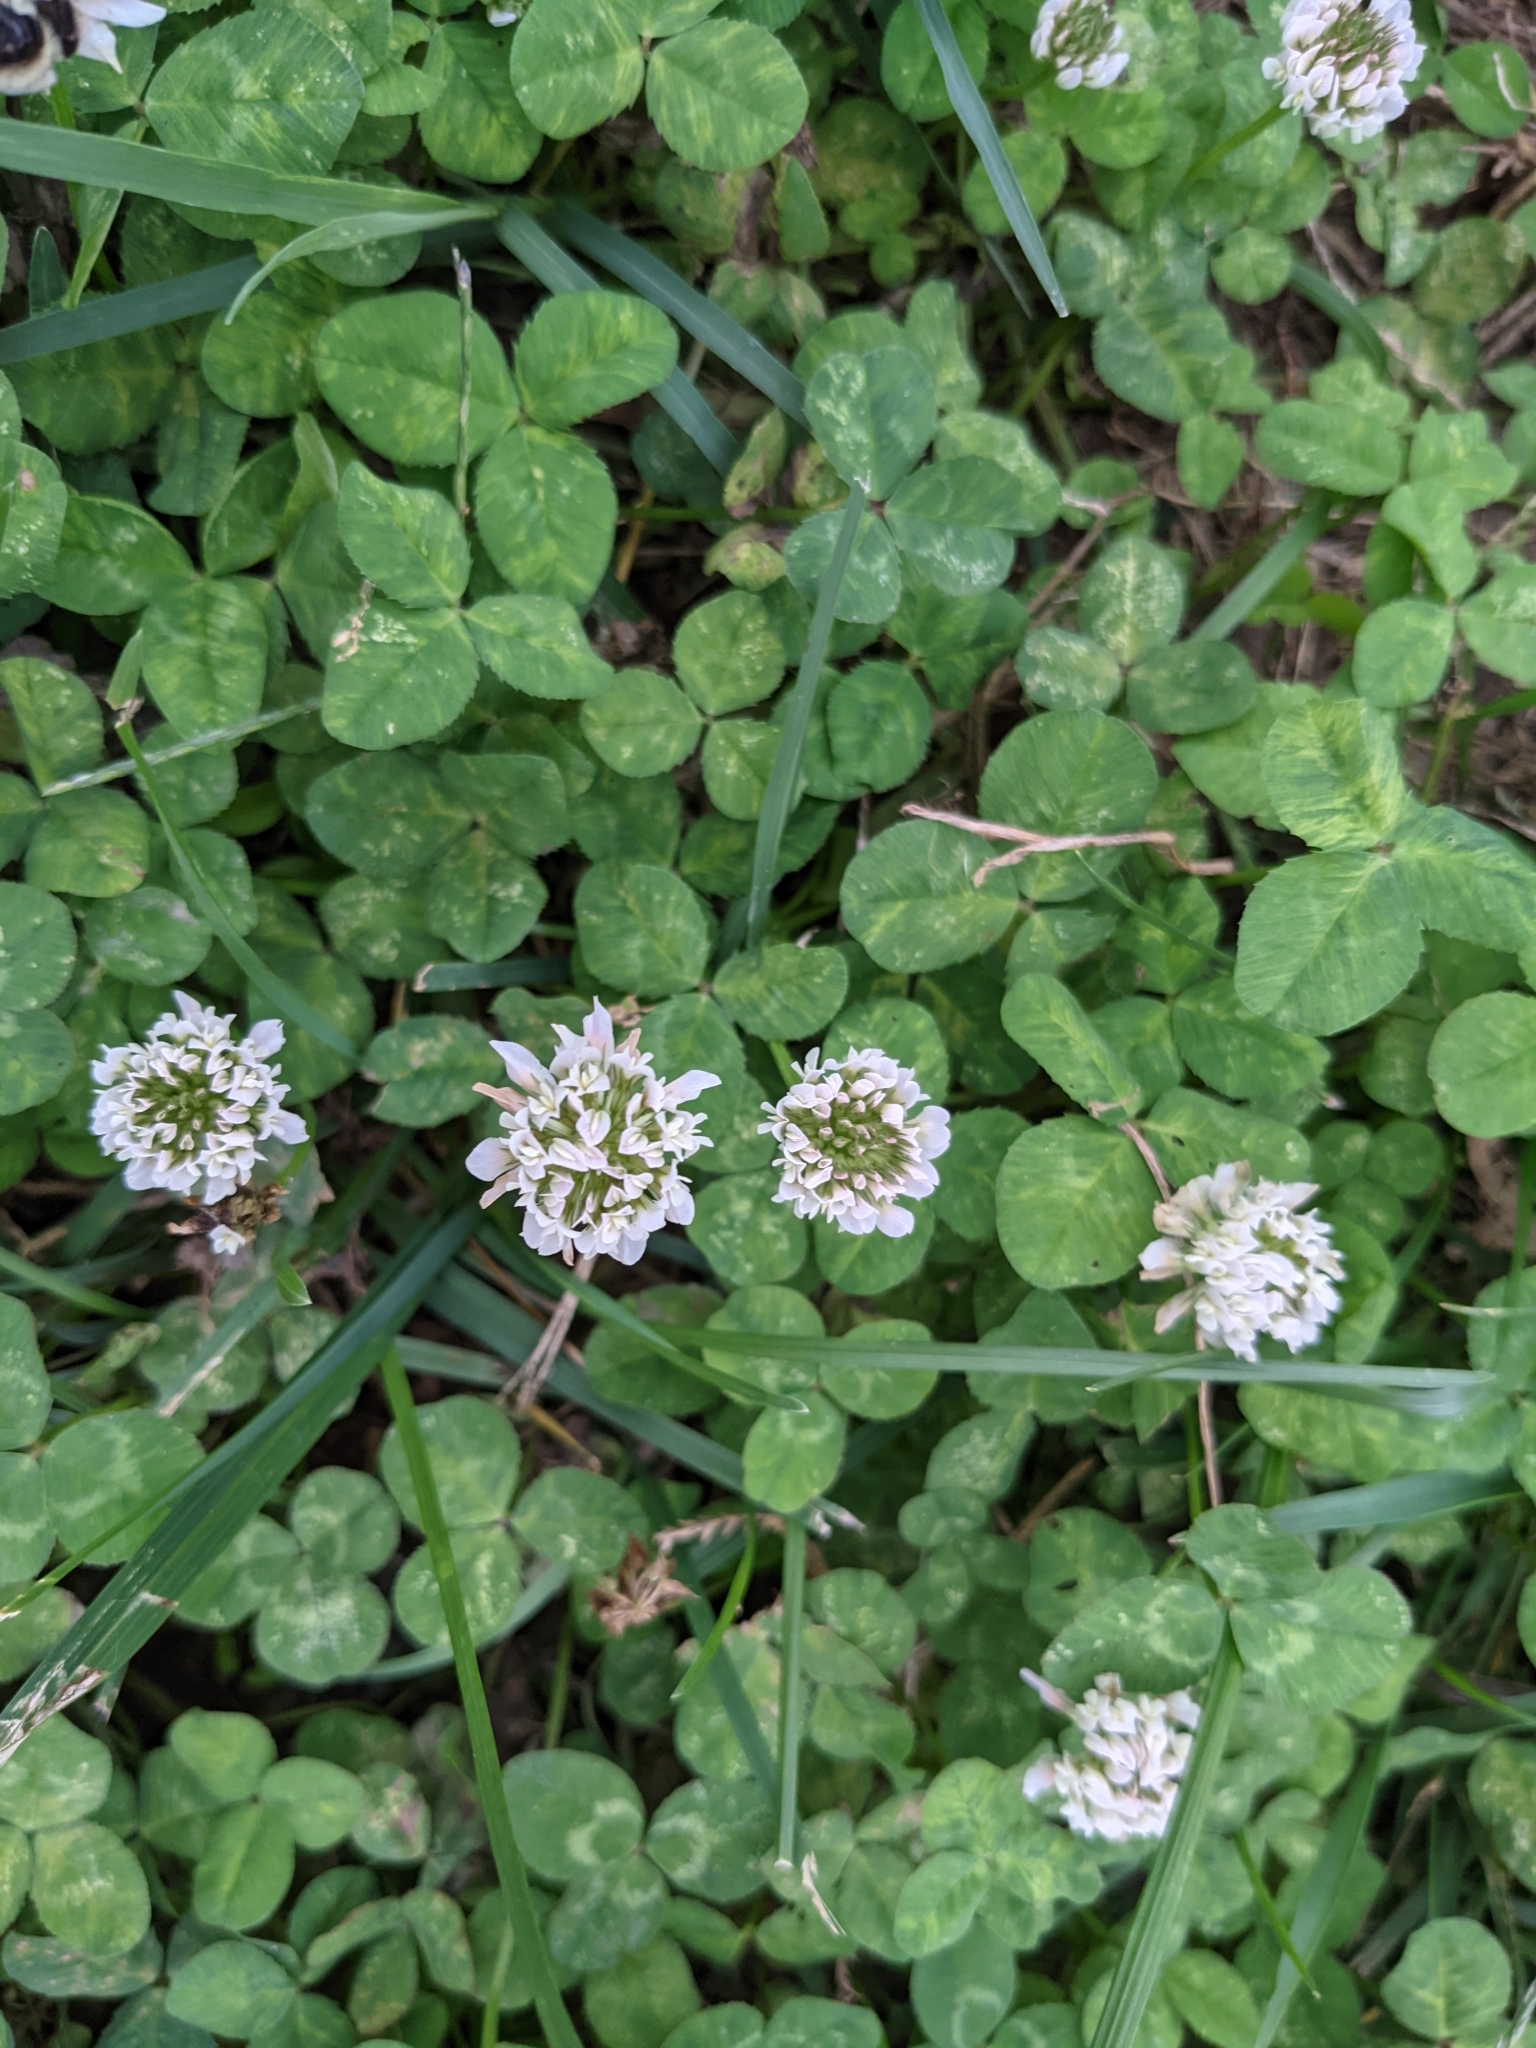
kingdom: Plantae
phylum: Tracheophyta
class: Magnoliopsida
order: Fabales
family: Fabaceae
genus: Trifolium
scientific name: Trifolium repens
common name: White clover
